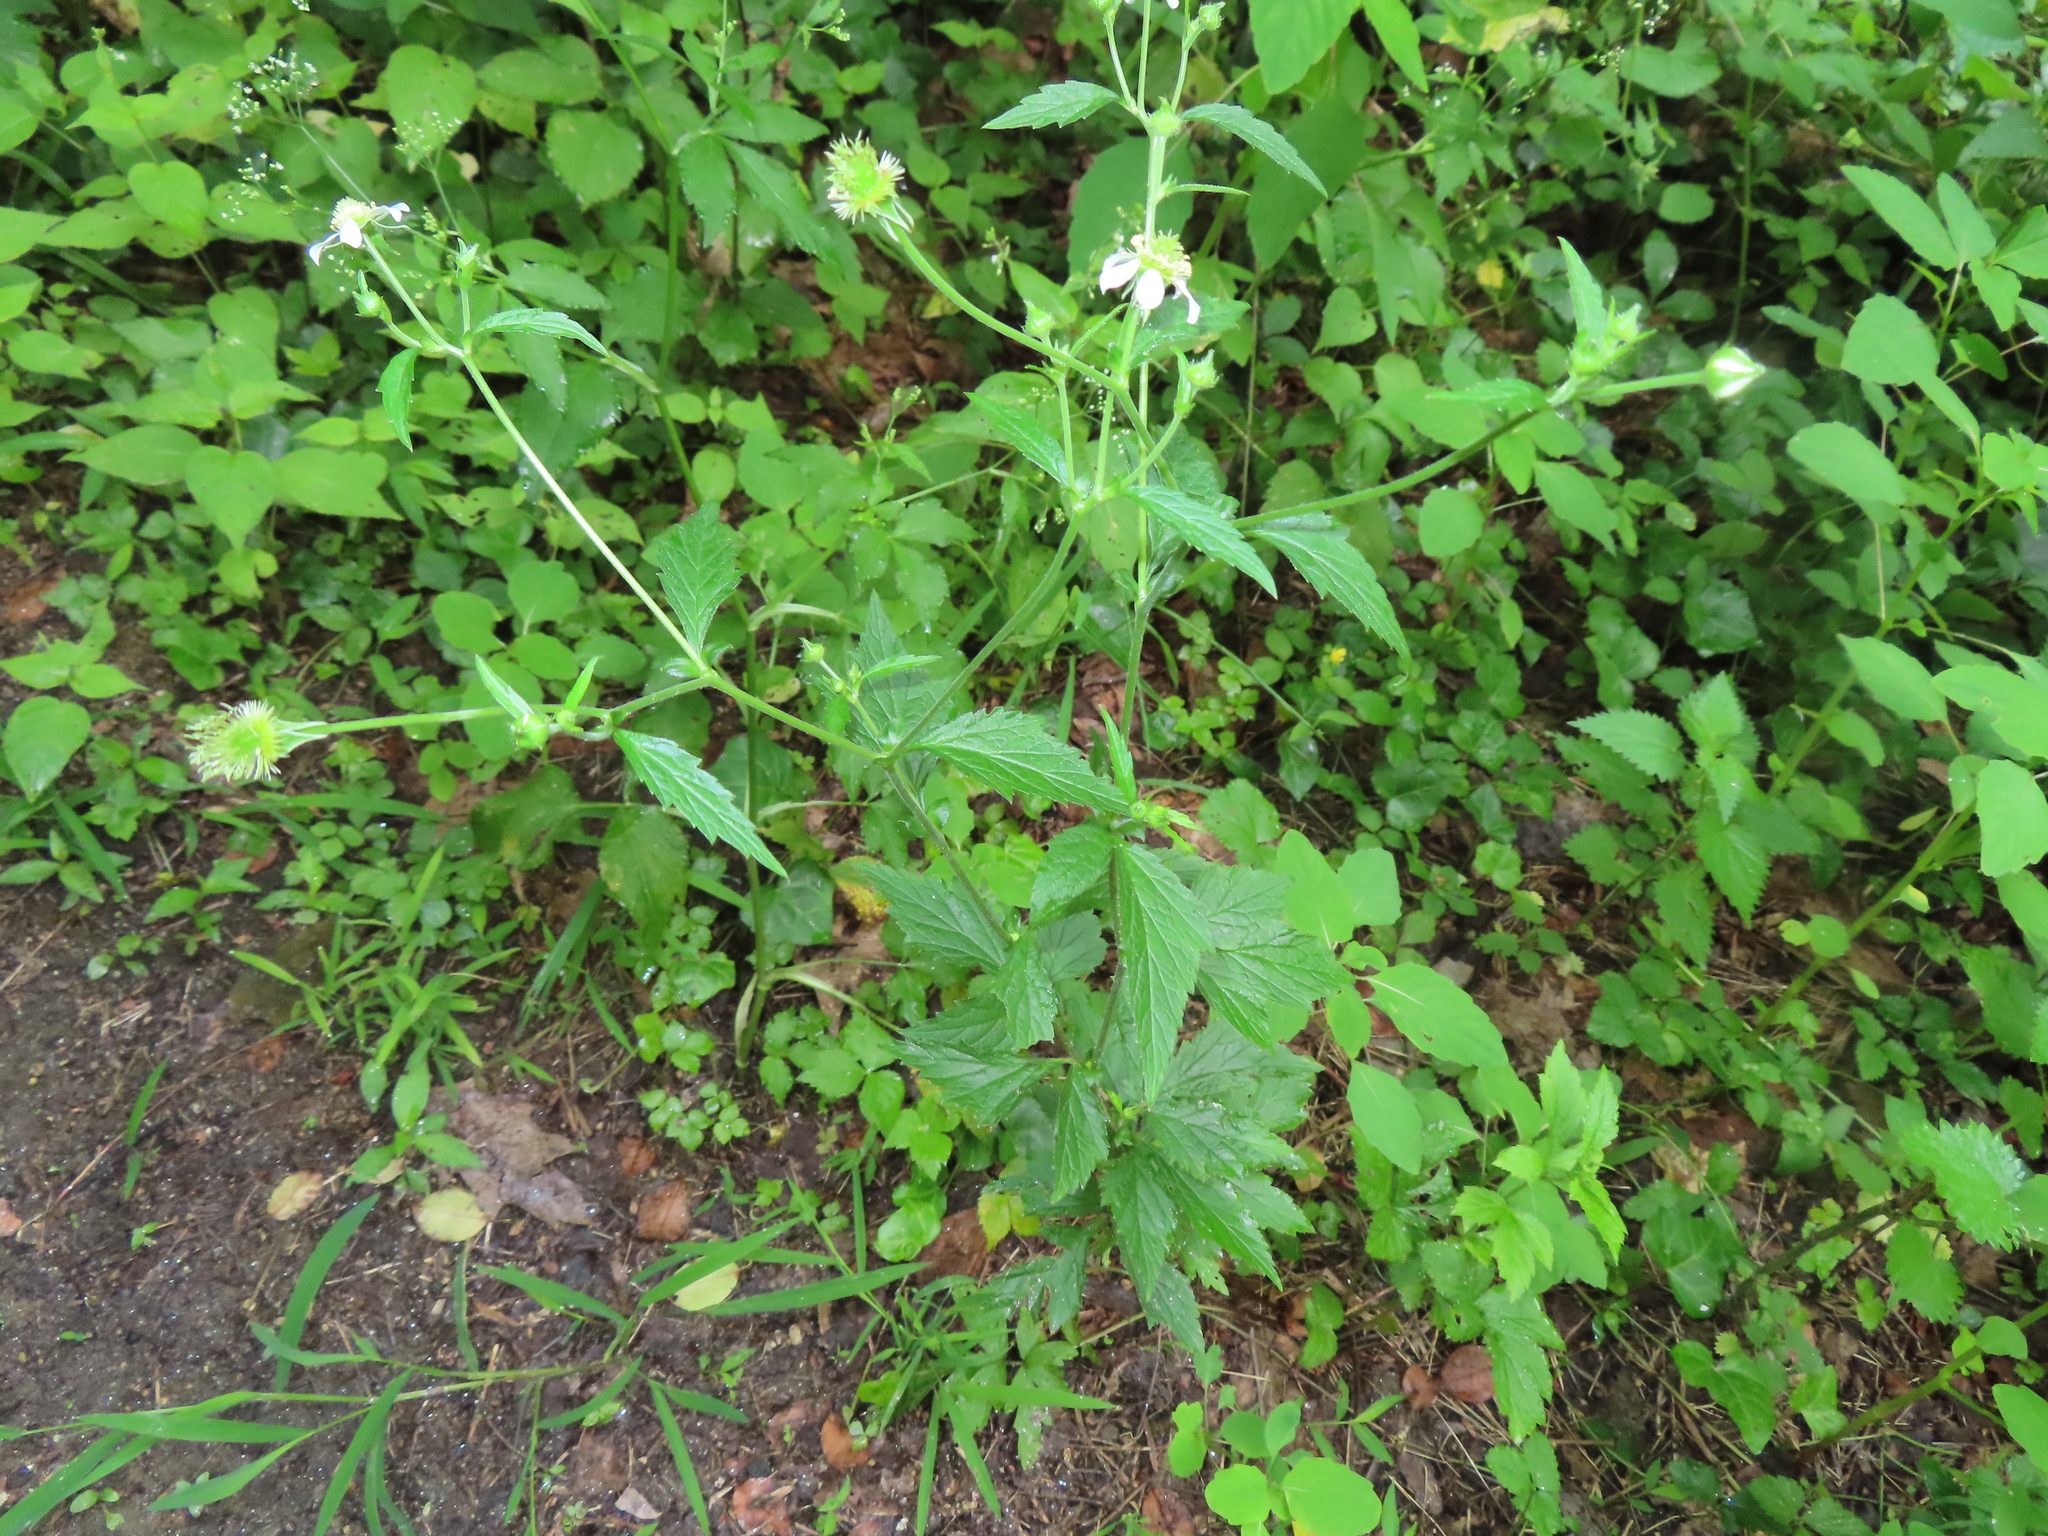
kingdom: Plantae
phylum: Tracheophyta
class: Magnoliopsida
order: Rosales
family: Rosaceae
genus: Geum
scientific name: Geum canadense
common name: White avens
